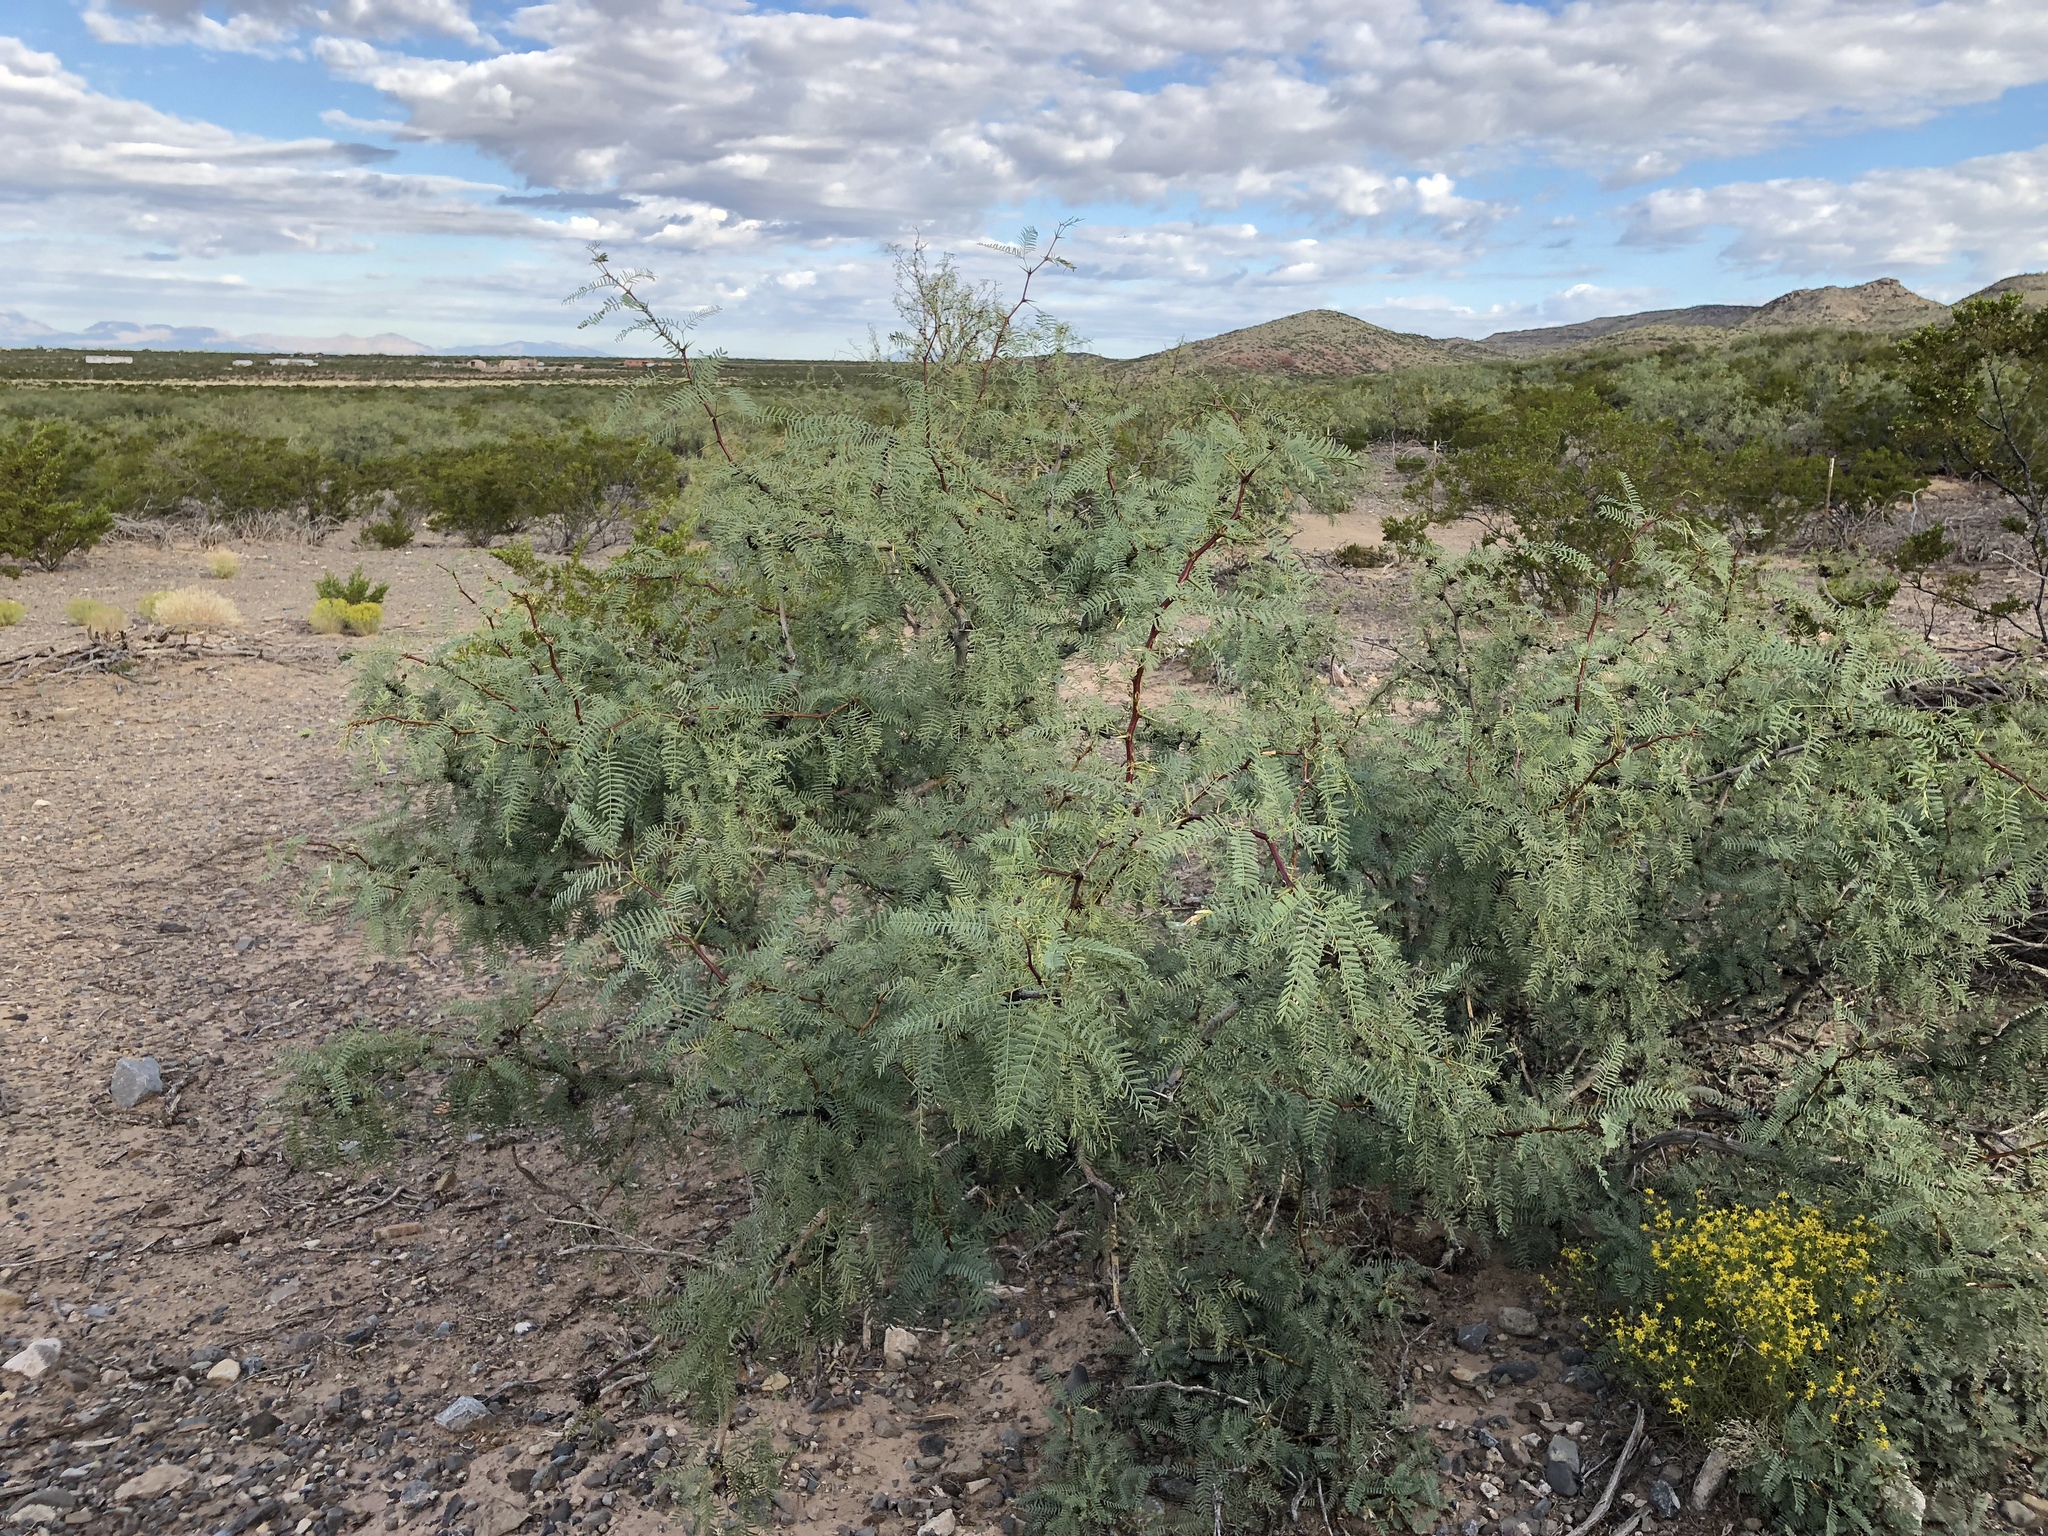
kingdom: Plantae
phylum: Tracheophyta
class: Magnoliopsida
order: Fabales
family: Fabaceae
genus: Prosopis
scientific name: Prosopis glandulosa
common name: Honey mesquite
